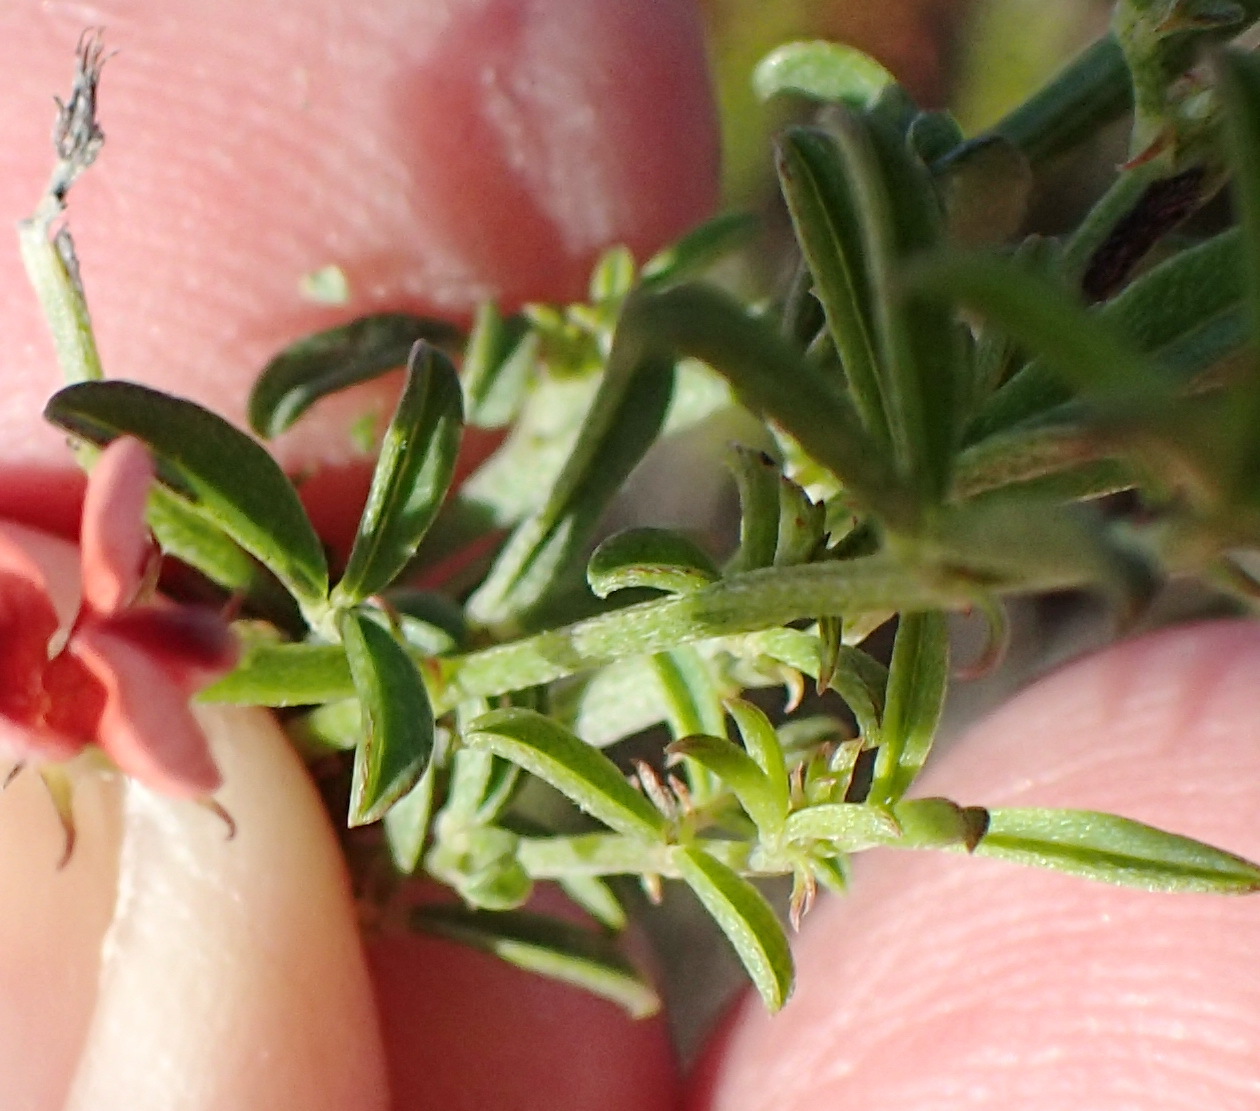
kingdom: Plantae
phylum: Tracheophyta
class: Magnoliopsida
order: Fabales
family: Fabaceae
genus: Indigofera
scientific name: Indigofera priorii
